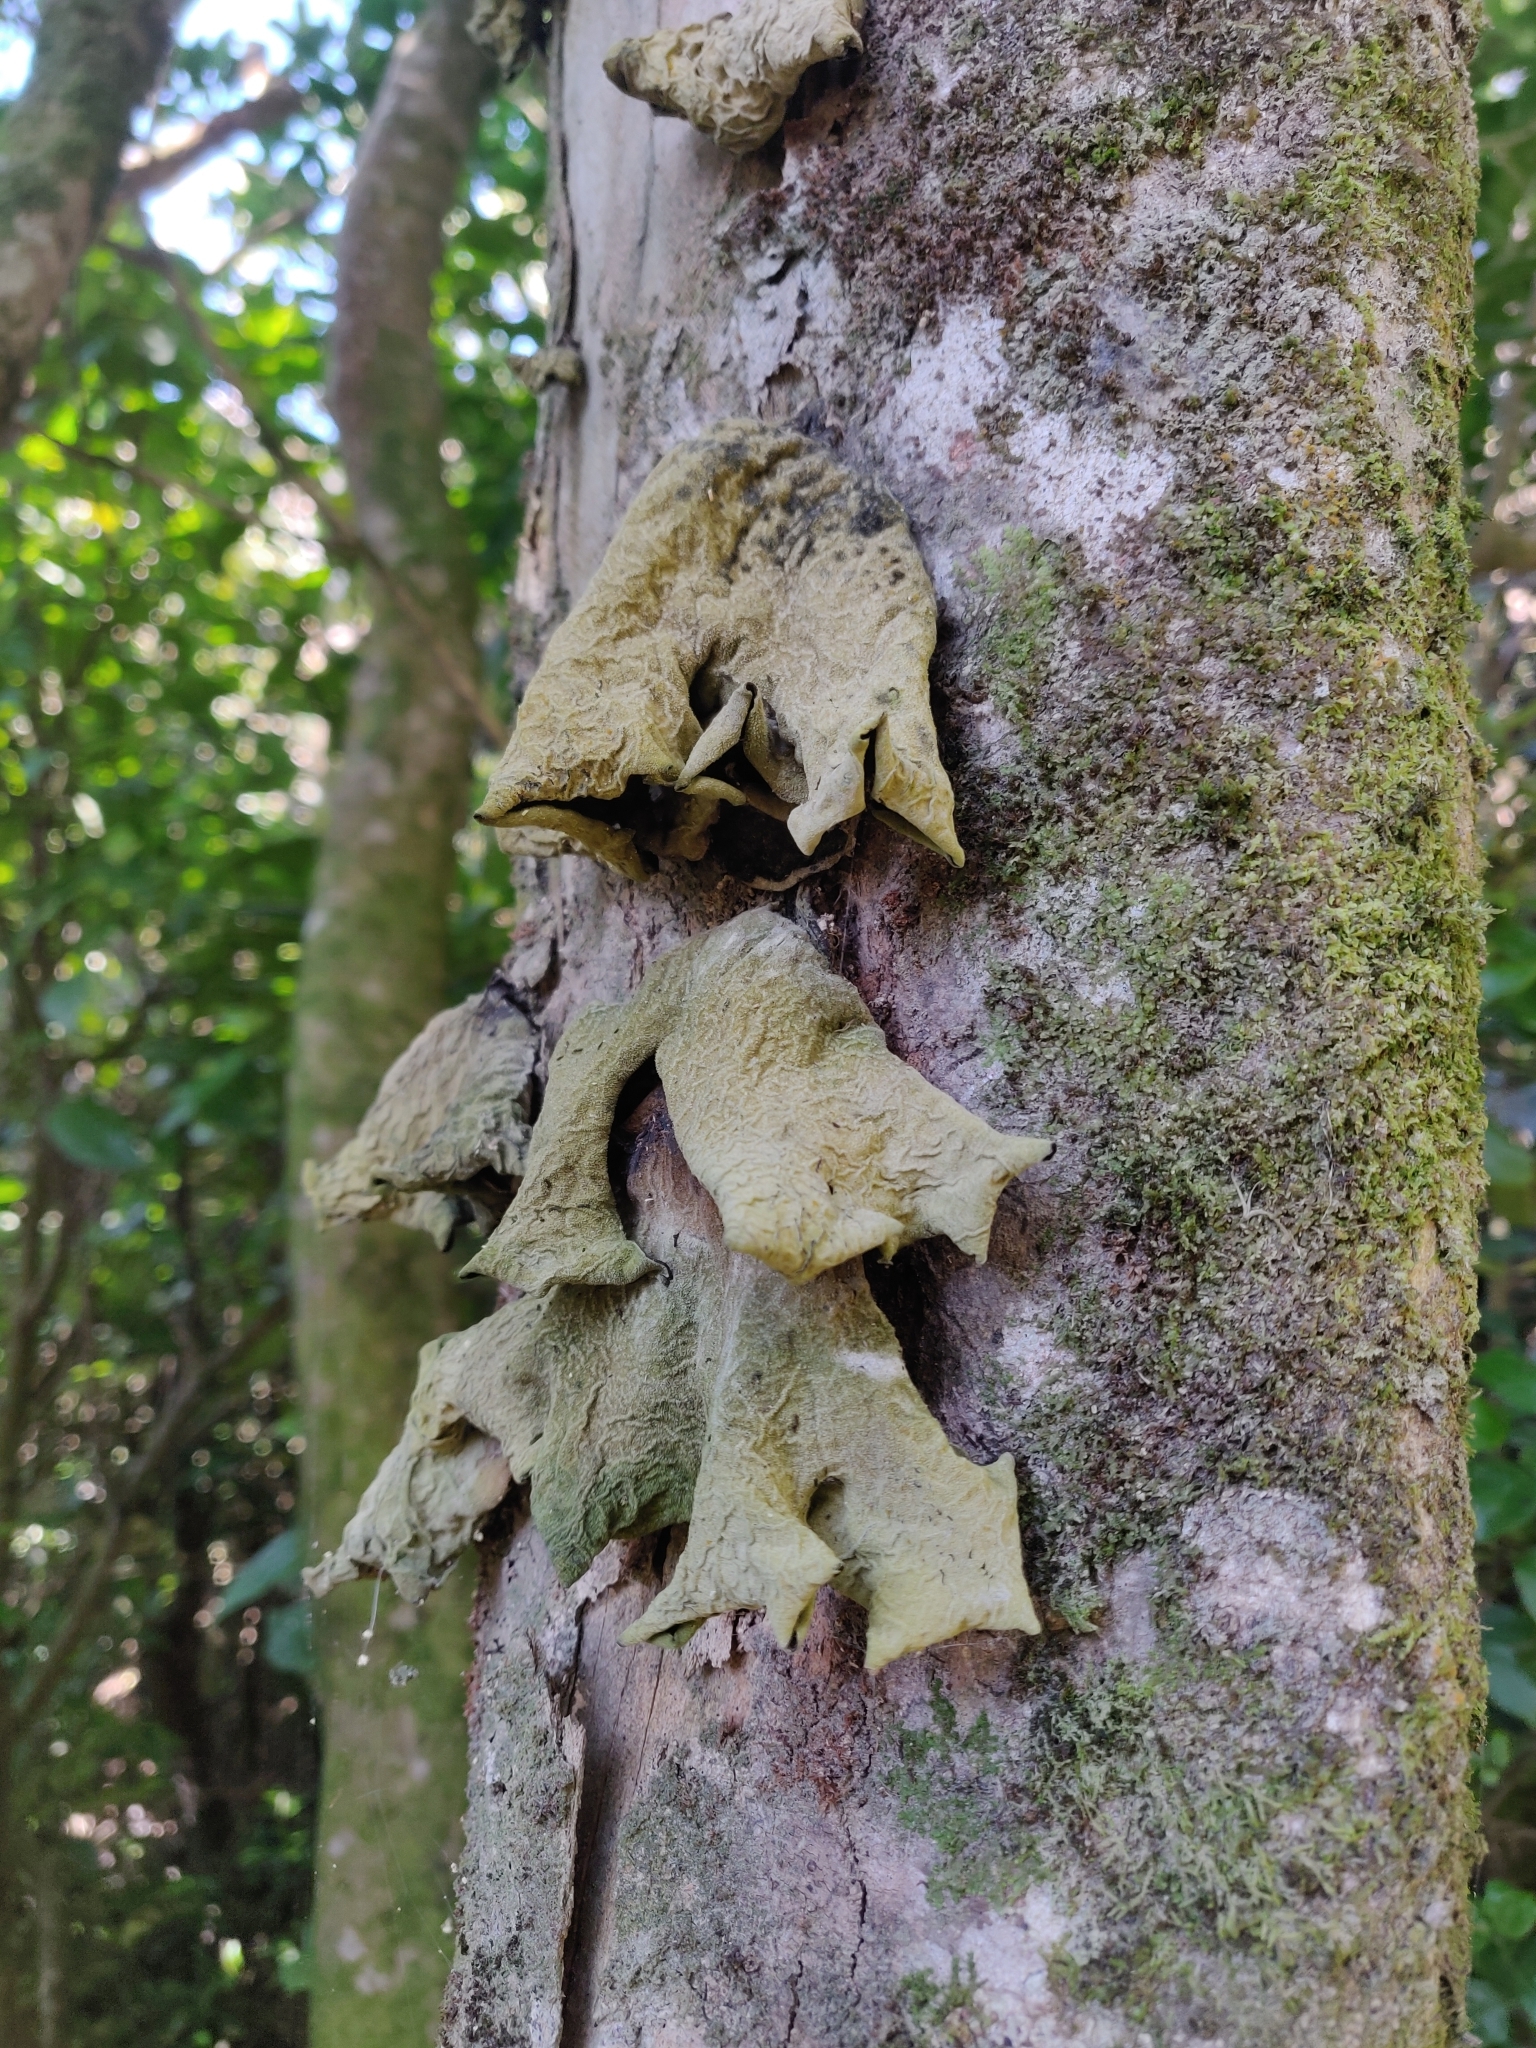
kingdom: Fungi
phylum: Basidiomycota
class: Agaricomycetes
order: Auriculariales
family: Auriculariaceae
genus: Auricularia
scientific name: Auricularia cornea
